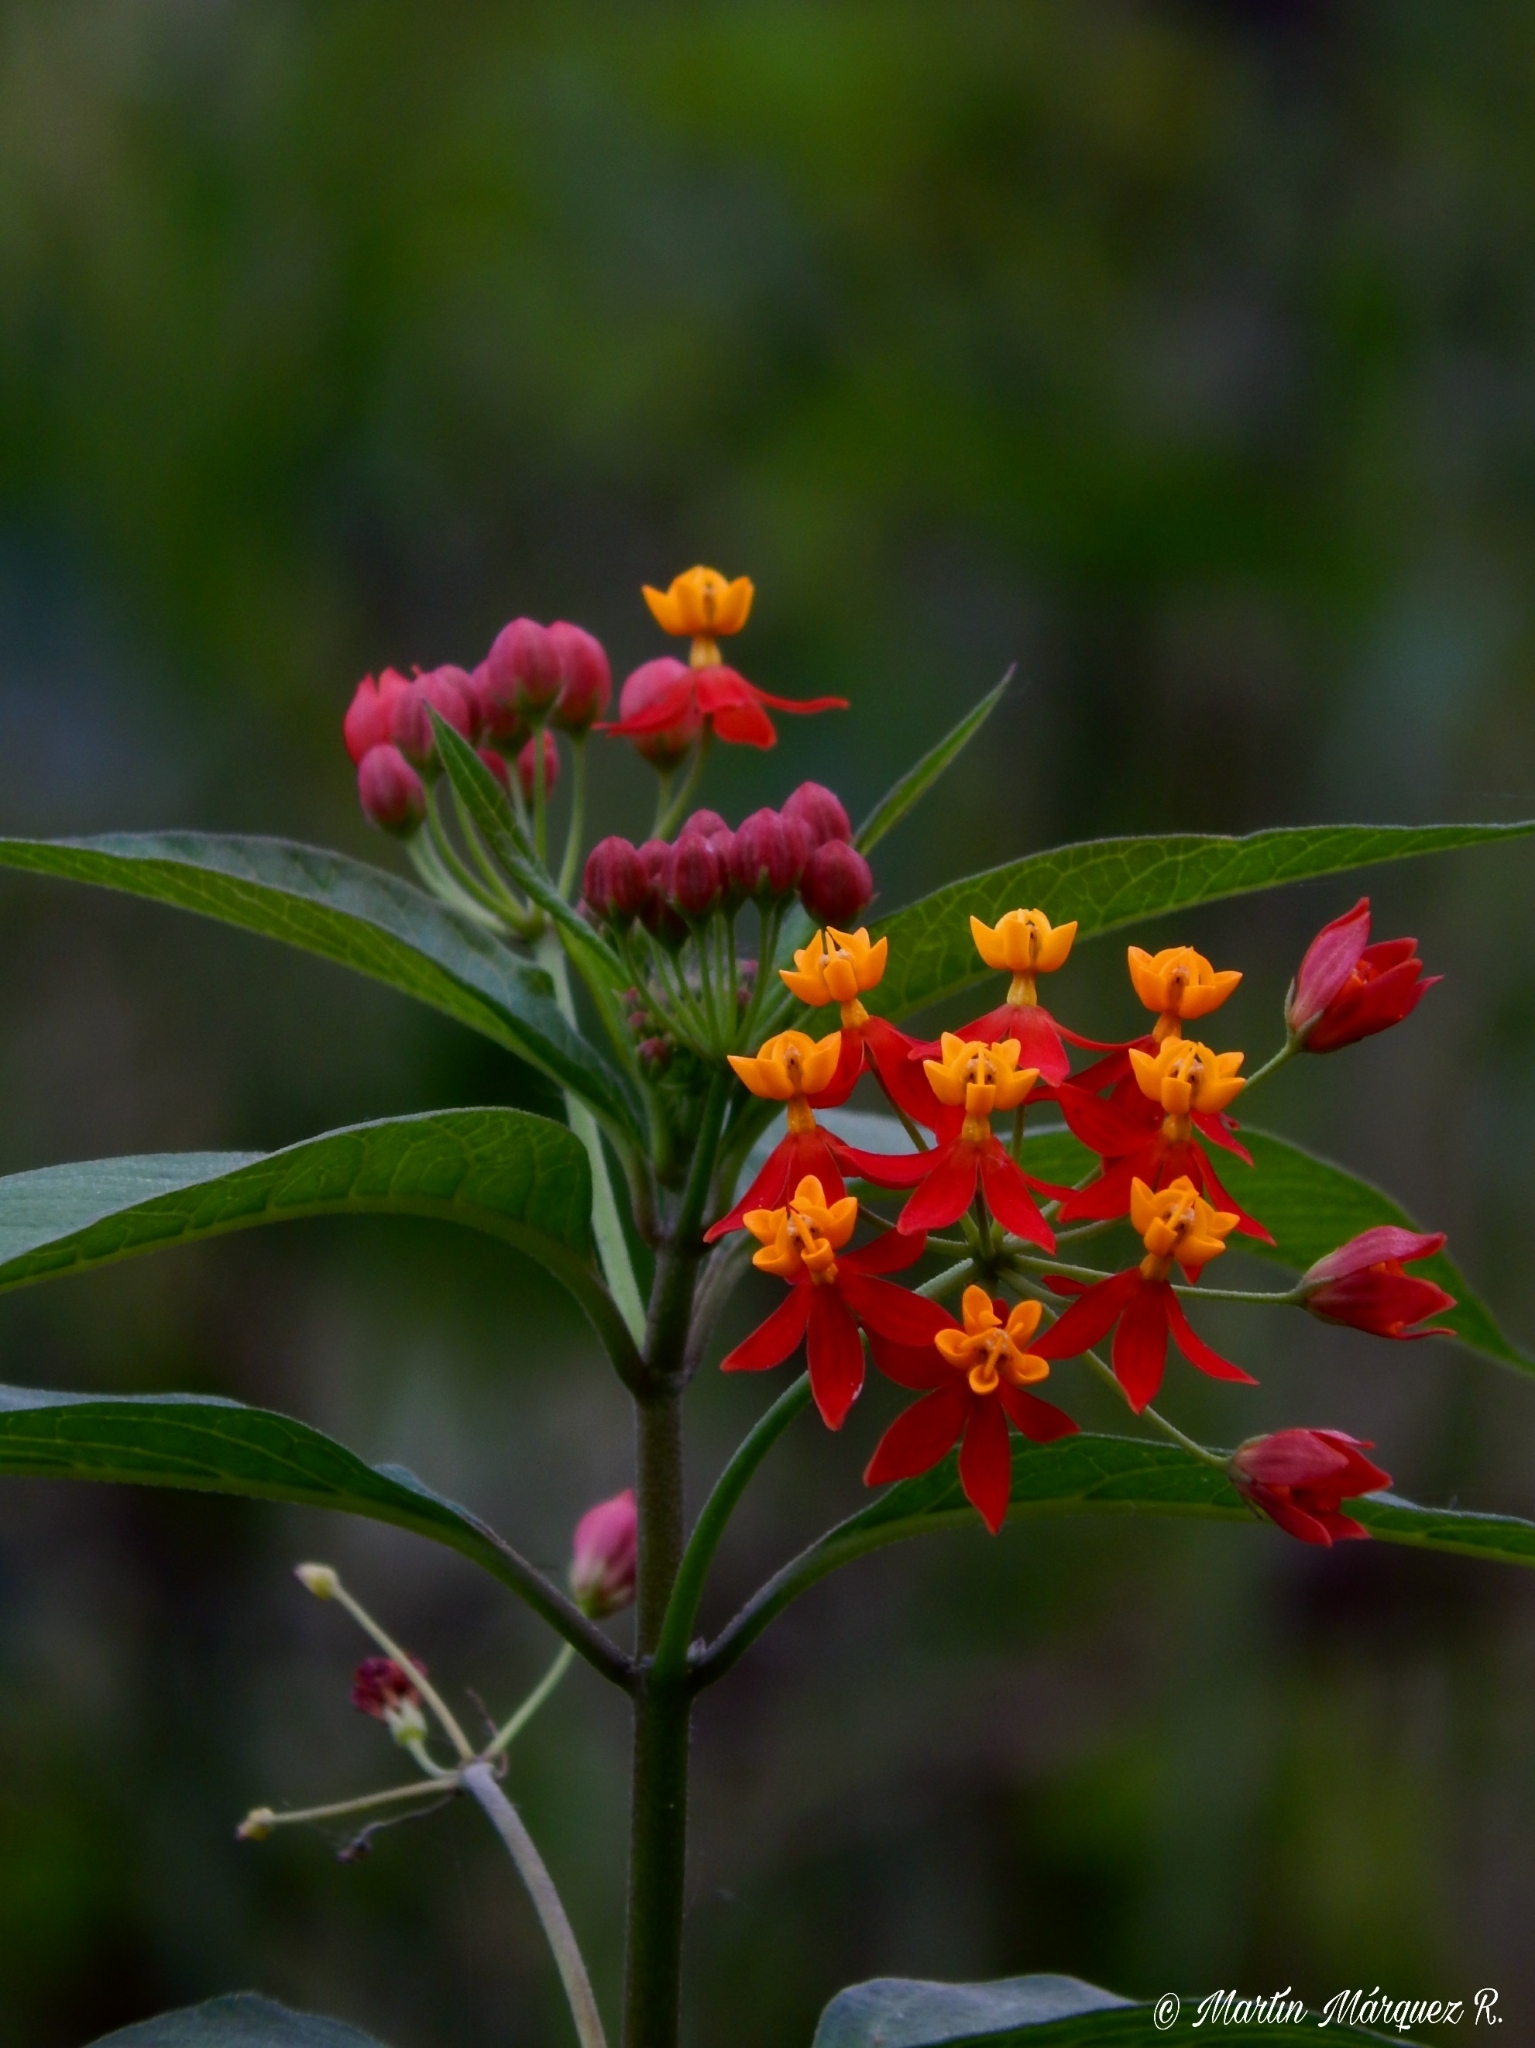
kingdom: Plantae
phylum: Tracheophyta
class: Magnoliopsida
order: Gentianales
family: Apocynaceae
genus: Asclepias
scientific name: Asclepias curassavica
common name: Bloodflower
